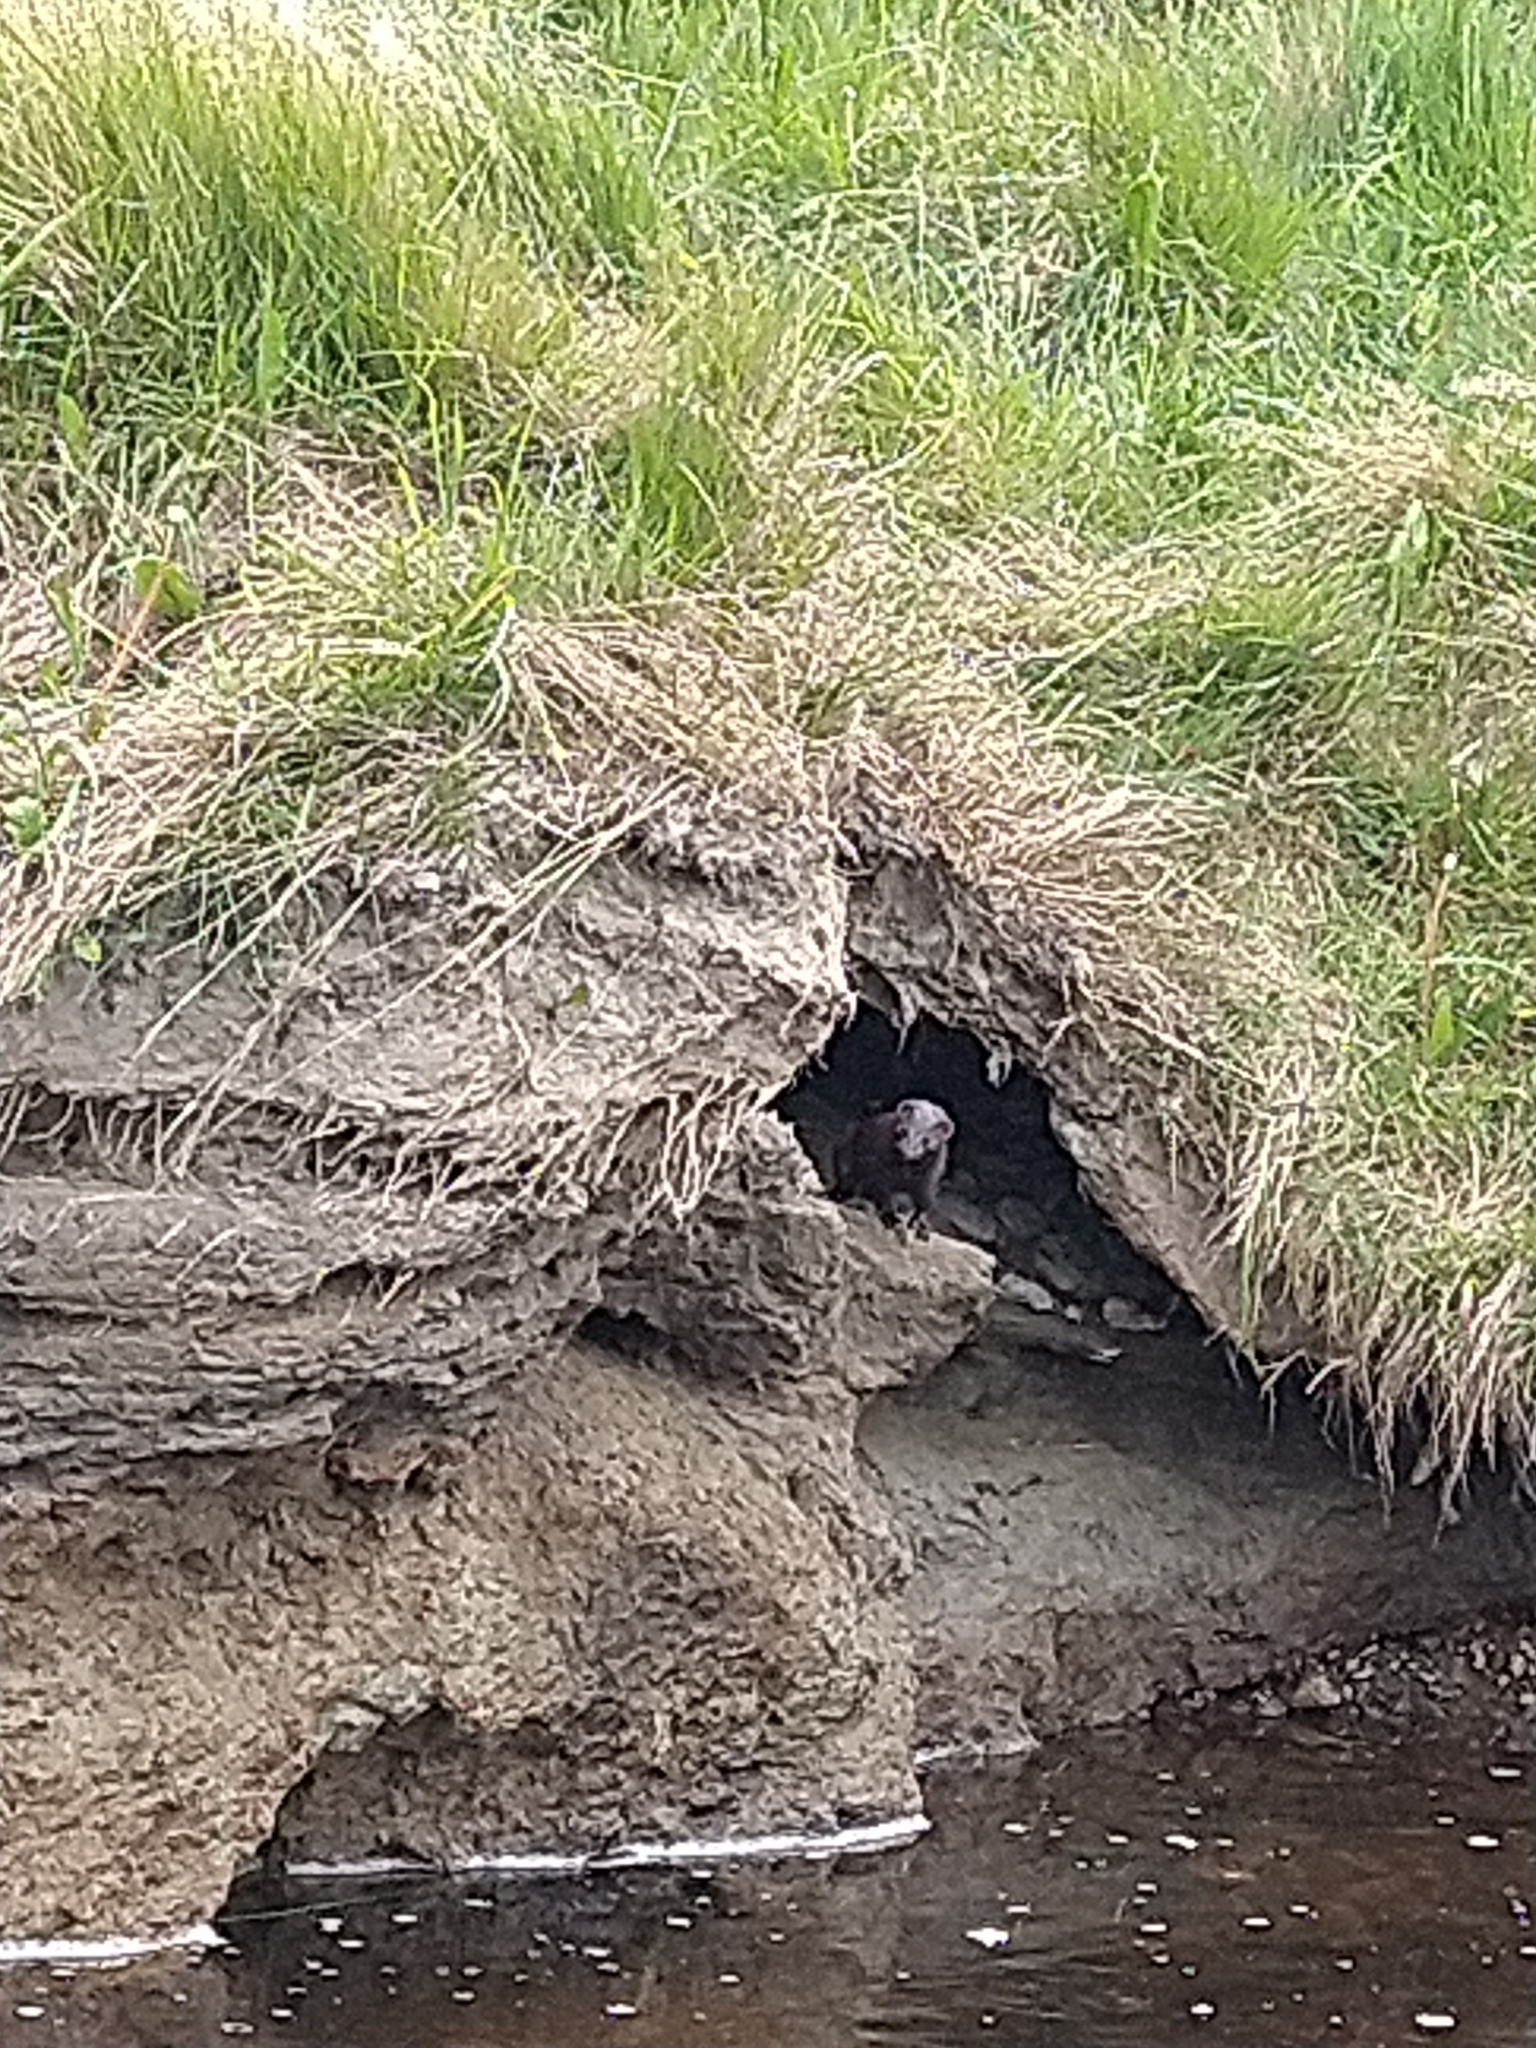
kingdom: Animalia
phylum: Chordata
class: Mammalia
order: Carnivora
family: Mustelidae
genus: Mustela
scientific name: Mustela
